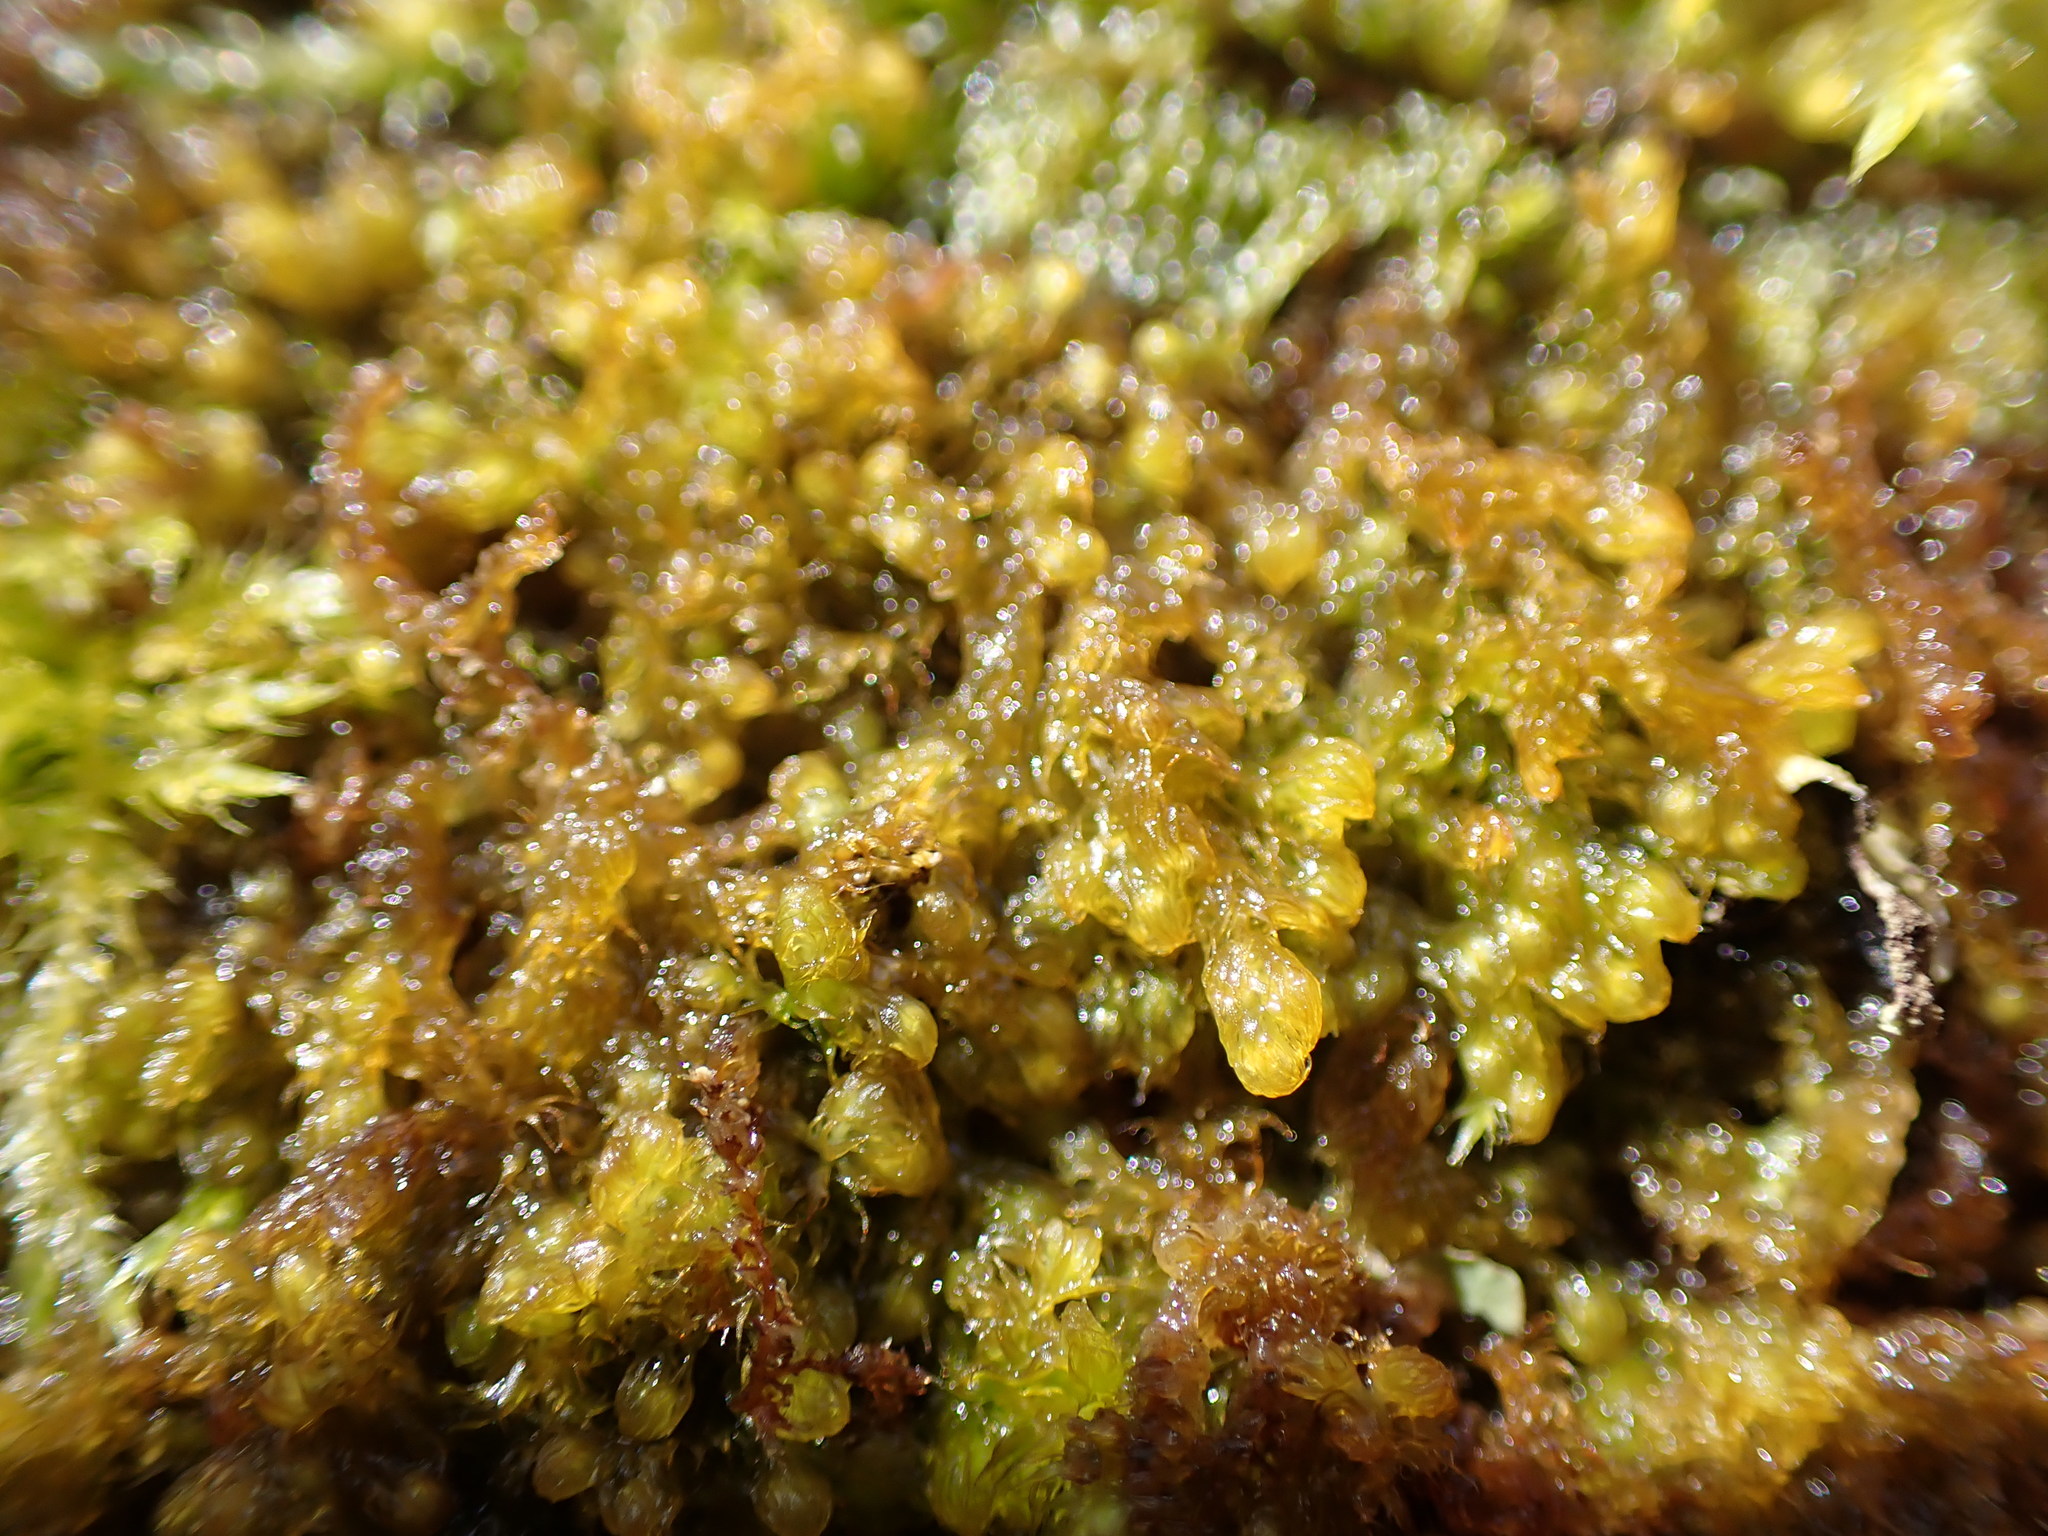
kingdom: Plantae
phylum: Marchantiophyta
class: Jungermanniopsida
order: Ptilidiales
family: Ptilidiaceae
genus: Ptilidium
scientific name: Ptilidium californicum
